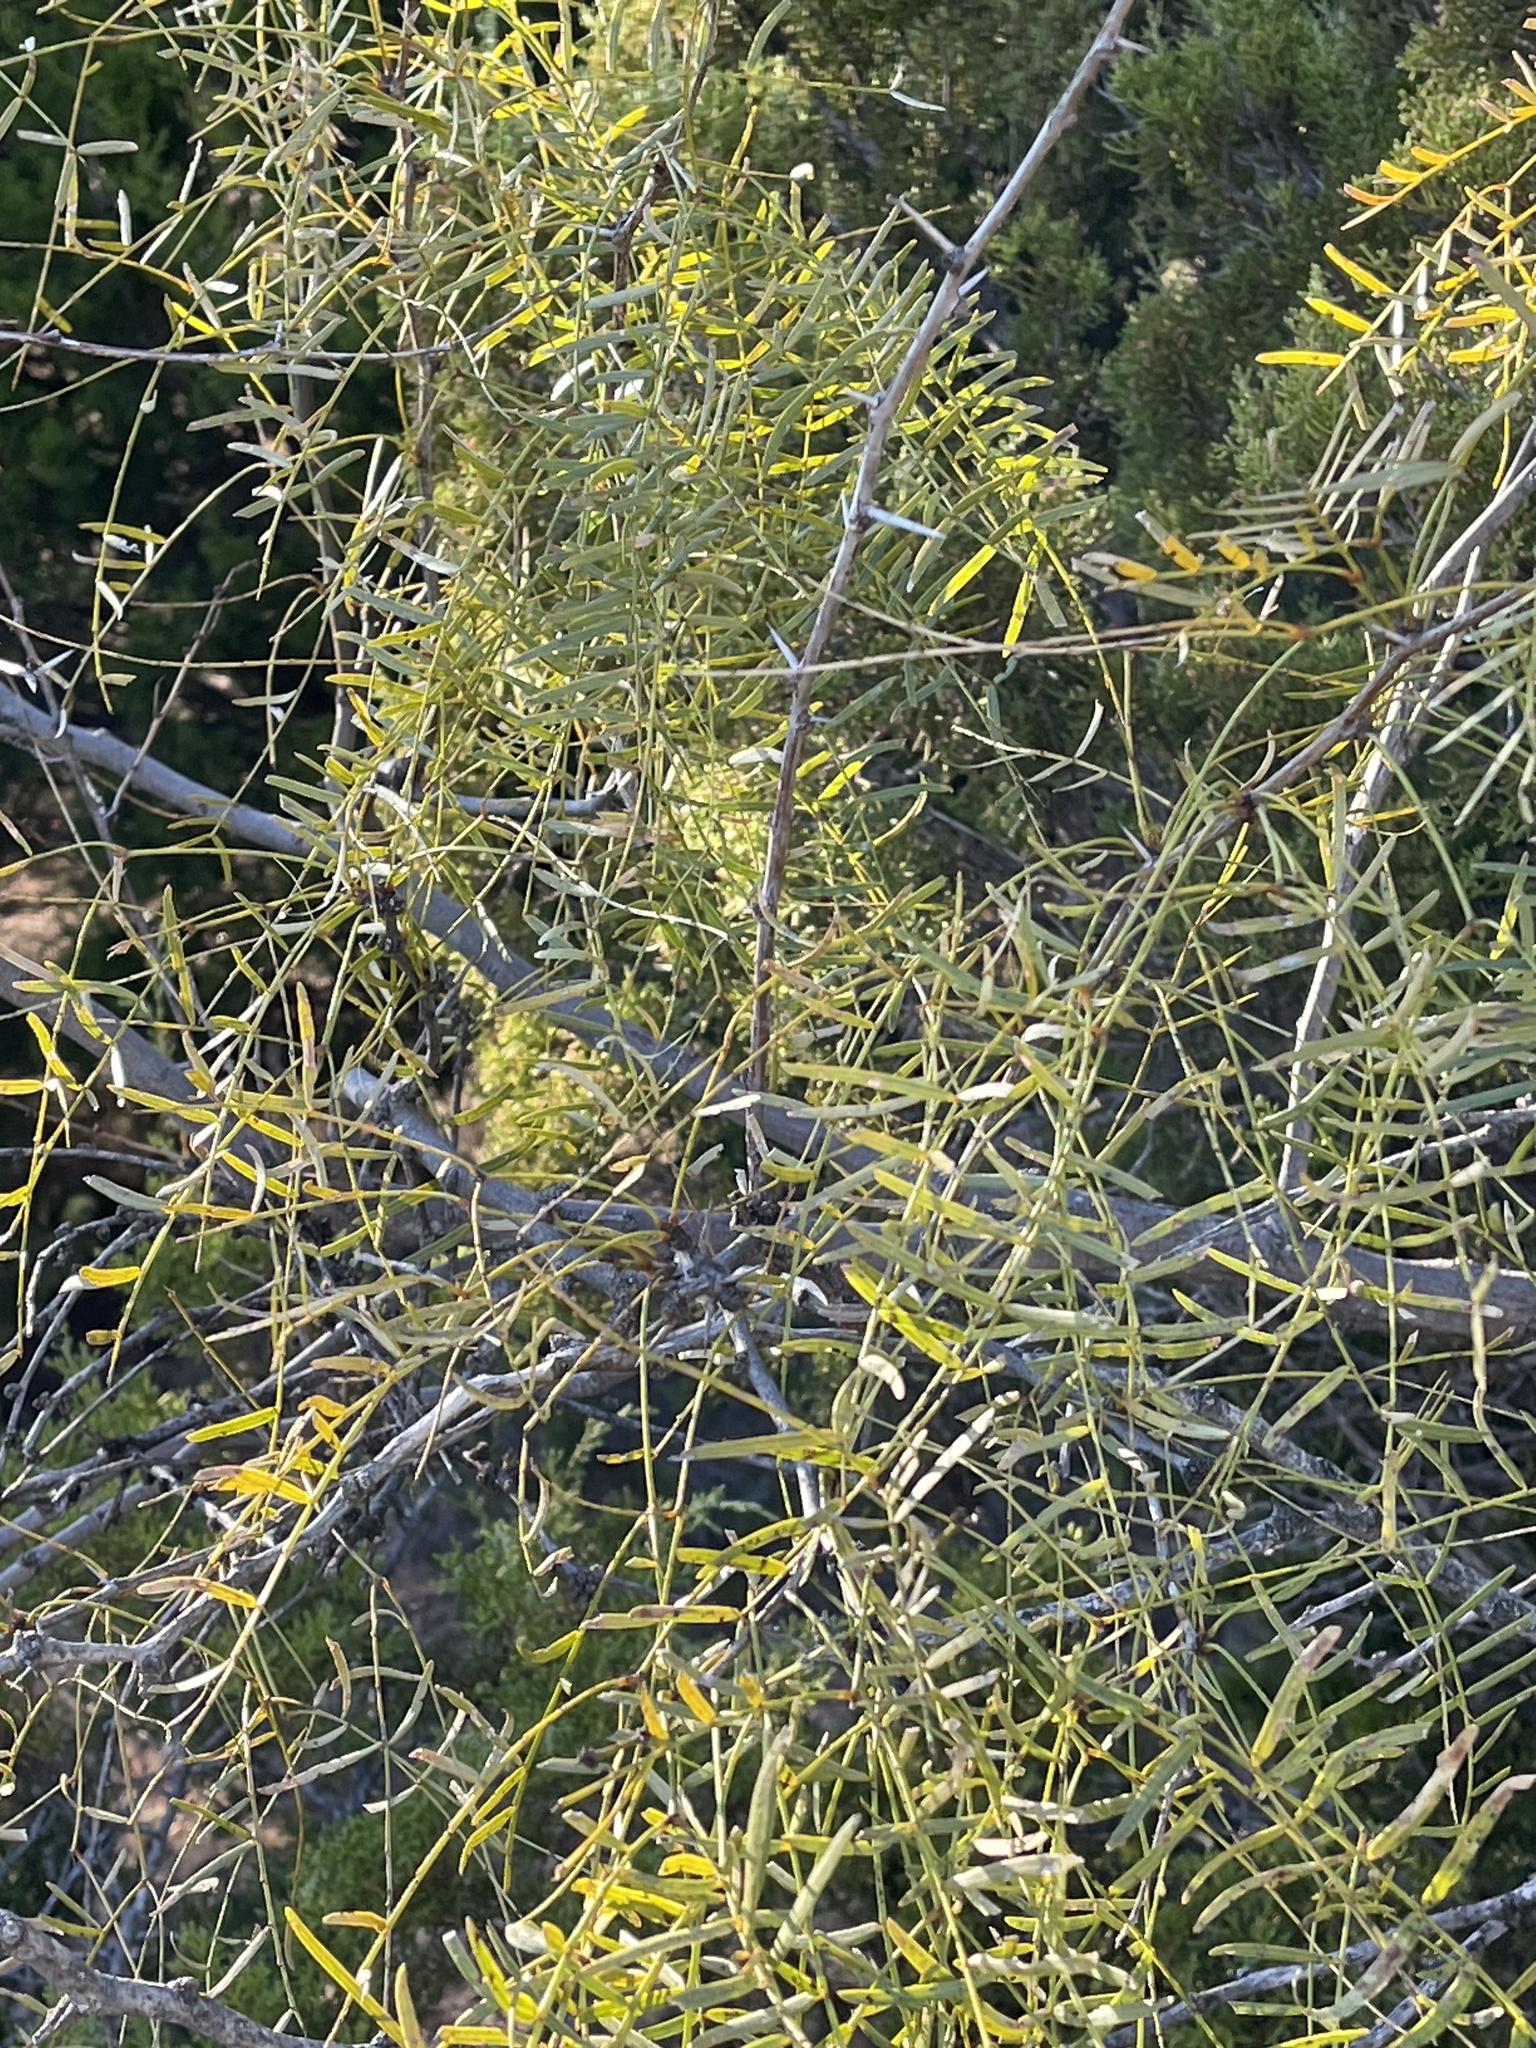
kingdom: Plantae
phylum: Tracheophyta
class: Magnoliopsida
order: Fabales
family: Fabaceae
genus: Prosopis
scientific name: Prosopis glandulosa
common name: Honey mesquite
